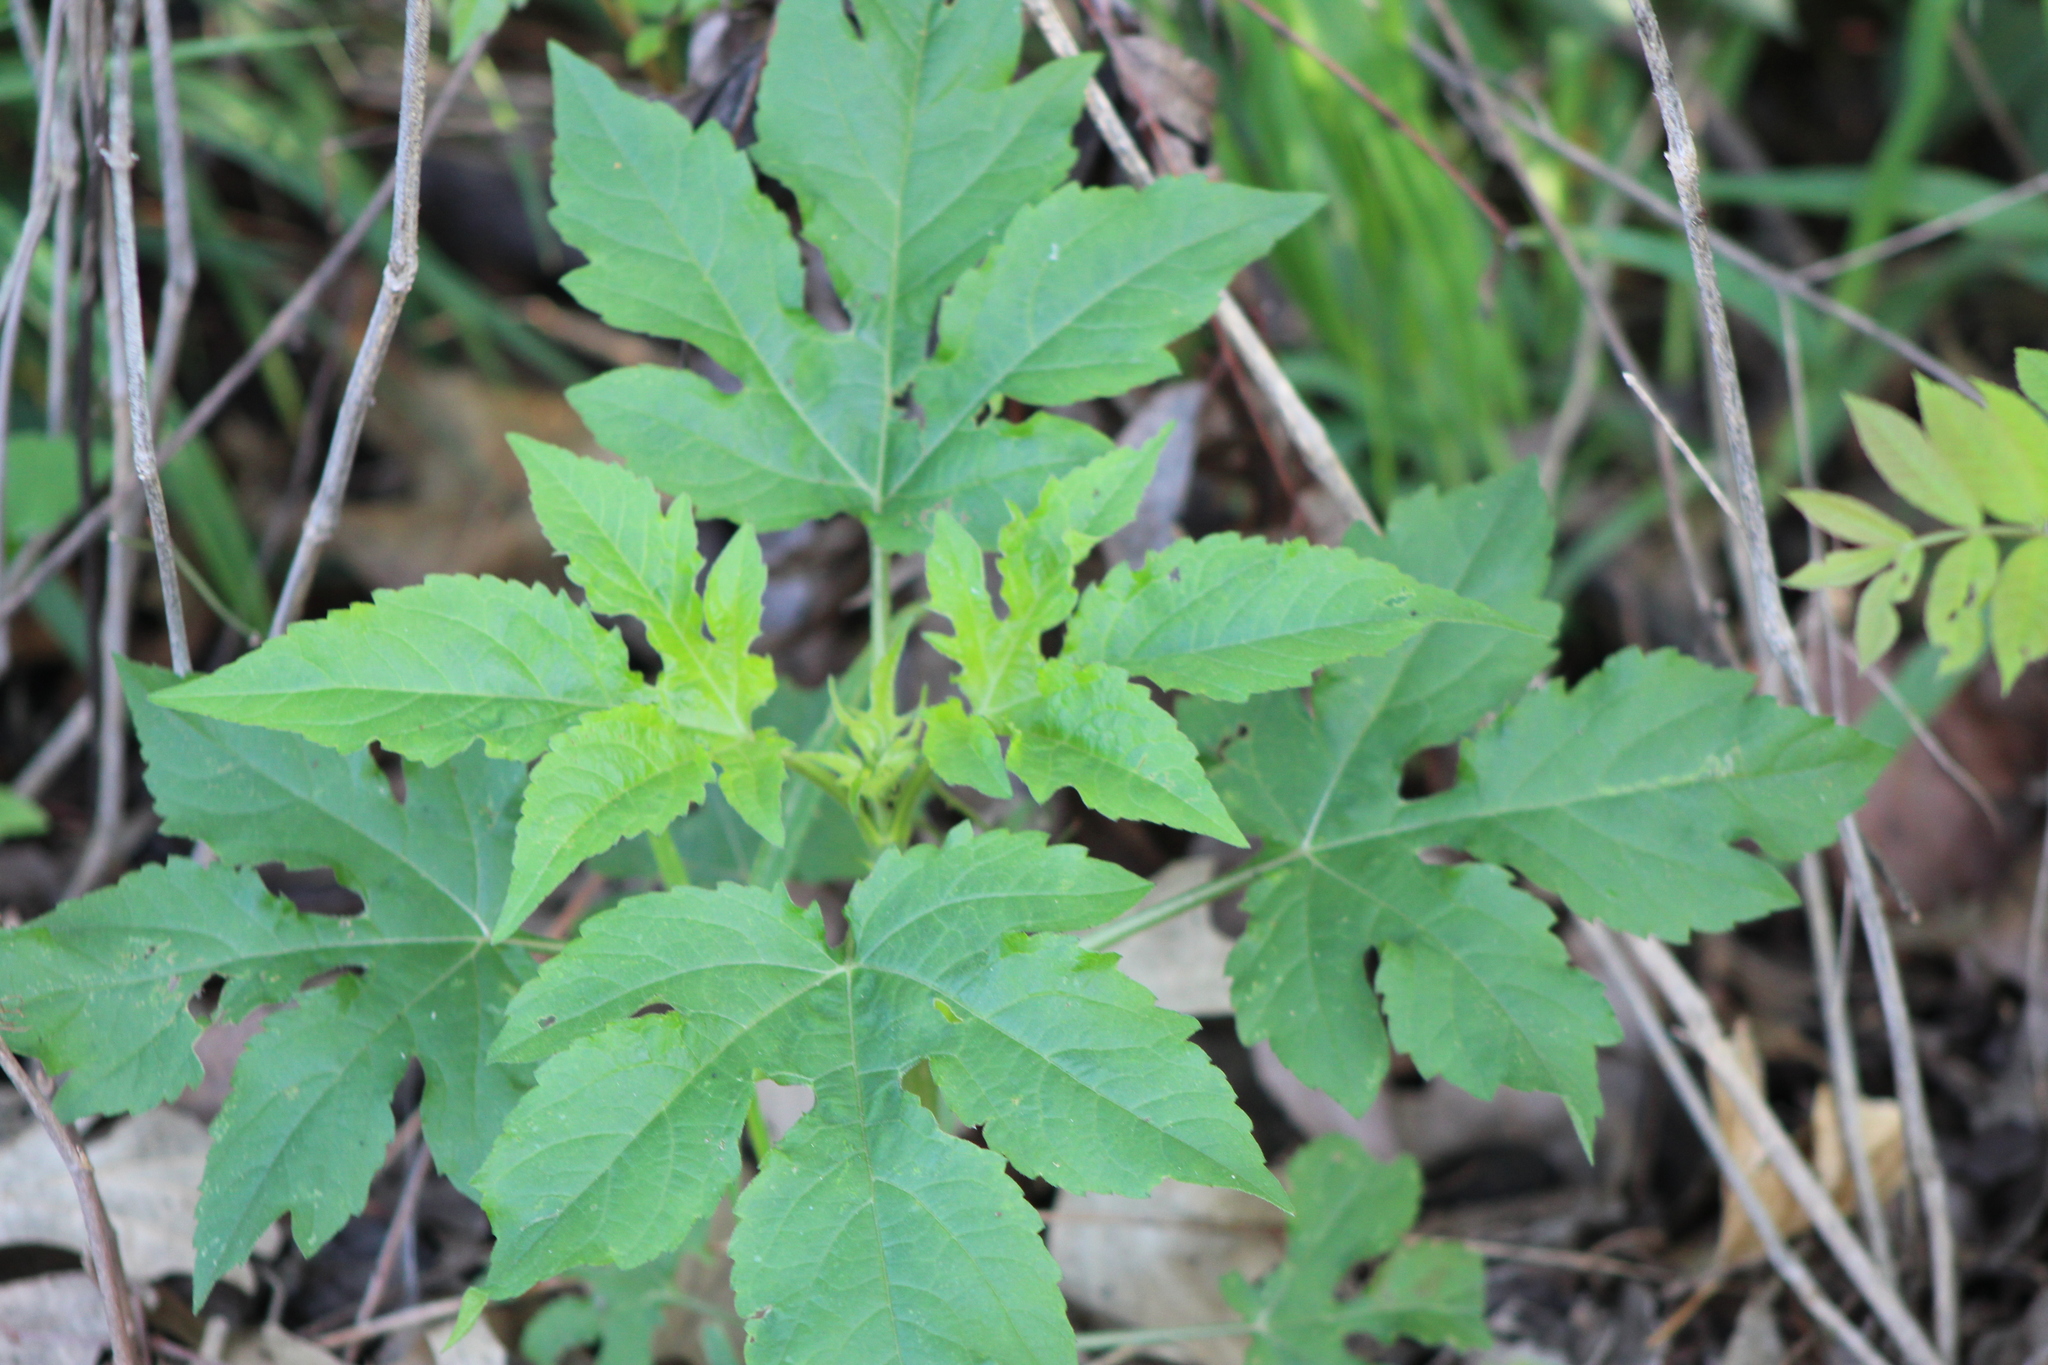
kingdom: Plantae
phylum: Tracheophyta
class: Magnoliopsida
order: Asterales
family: Asteraceae
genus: Ambrosia
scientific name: Ambrosia trifida
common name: Giant ragweed
